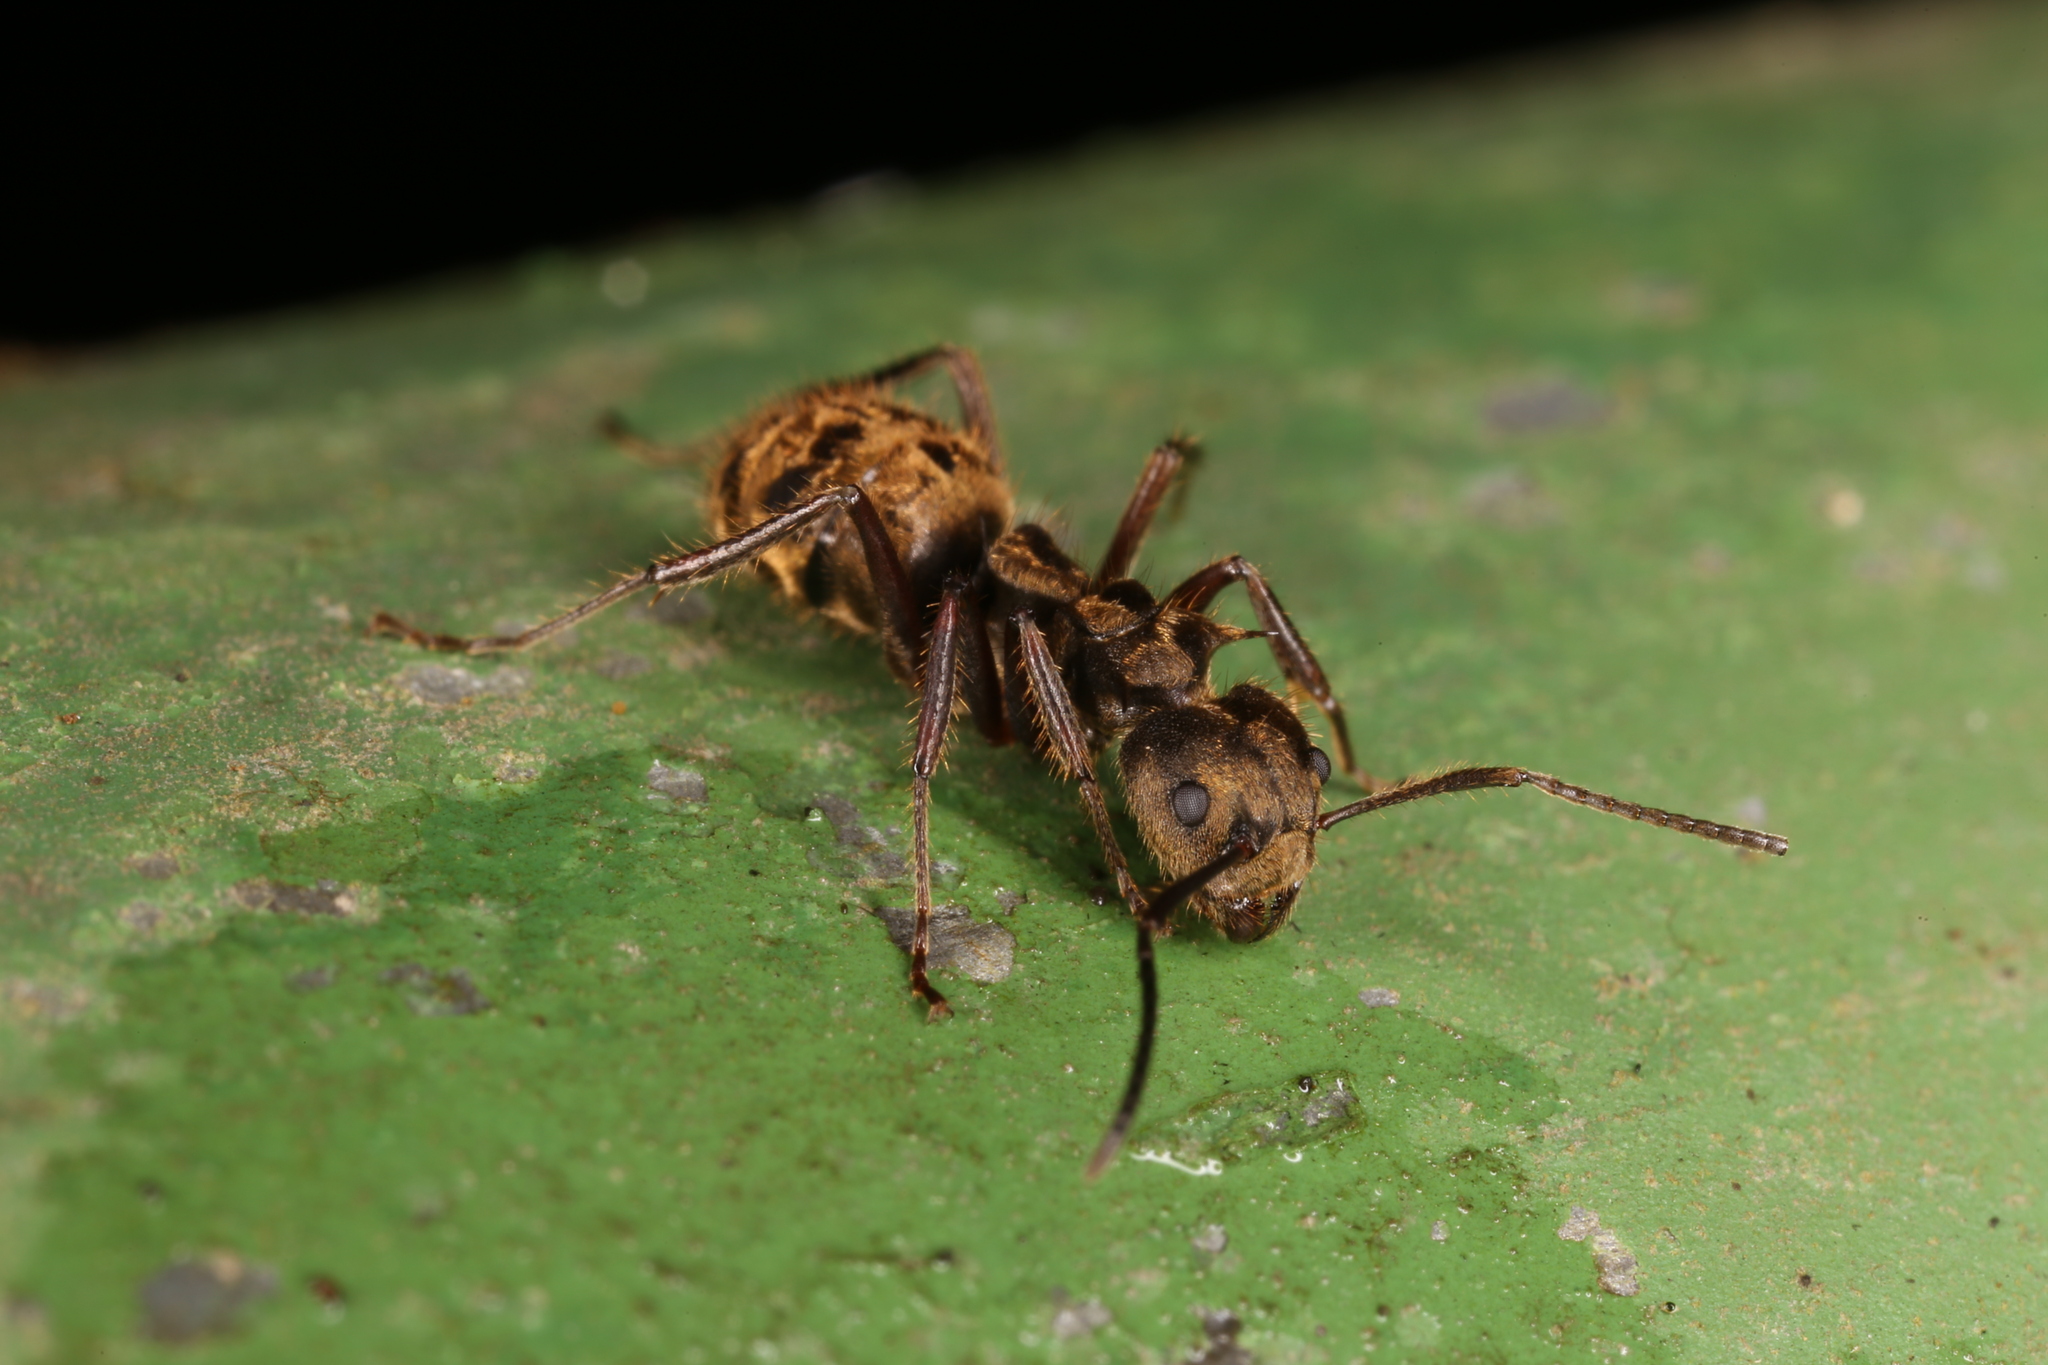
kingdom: Animalia
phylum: Arthropoda
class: Insecta
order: Hymenoptera
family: Formicidae
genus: Dolichoderus
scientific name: Dolichoderus validus
